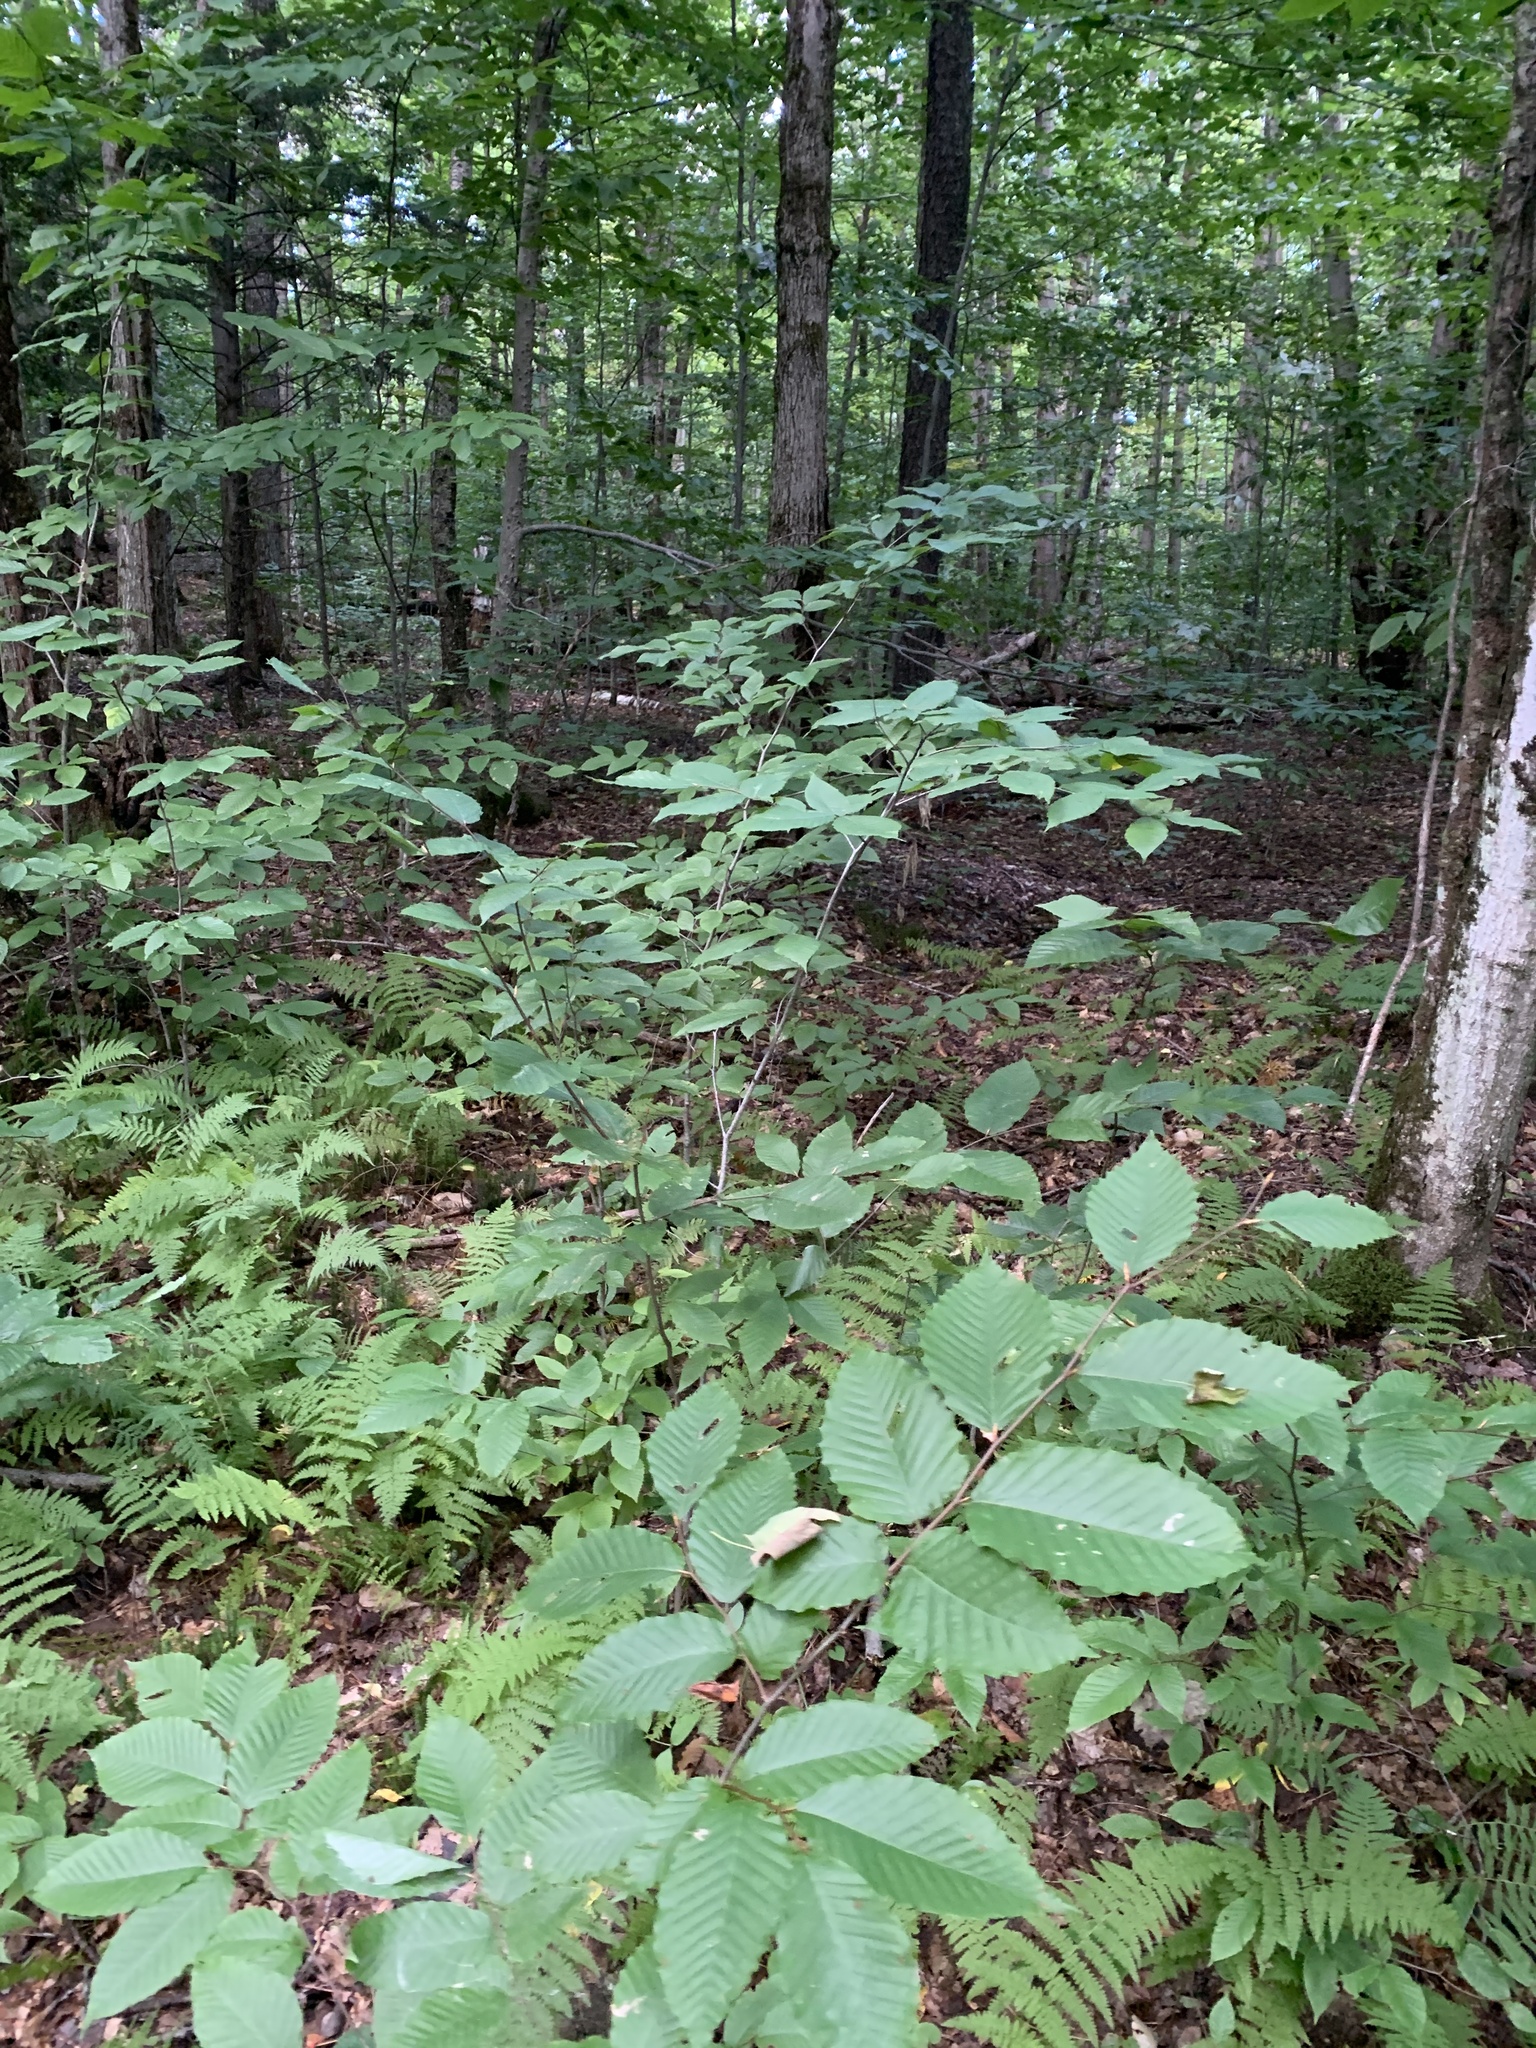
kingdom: Plantae
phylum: Tracheophyta
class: Magnoliopsida
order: Fagales
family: Fagaceae
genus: Fagus
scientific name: Fagus grandifolia
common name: American beech
